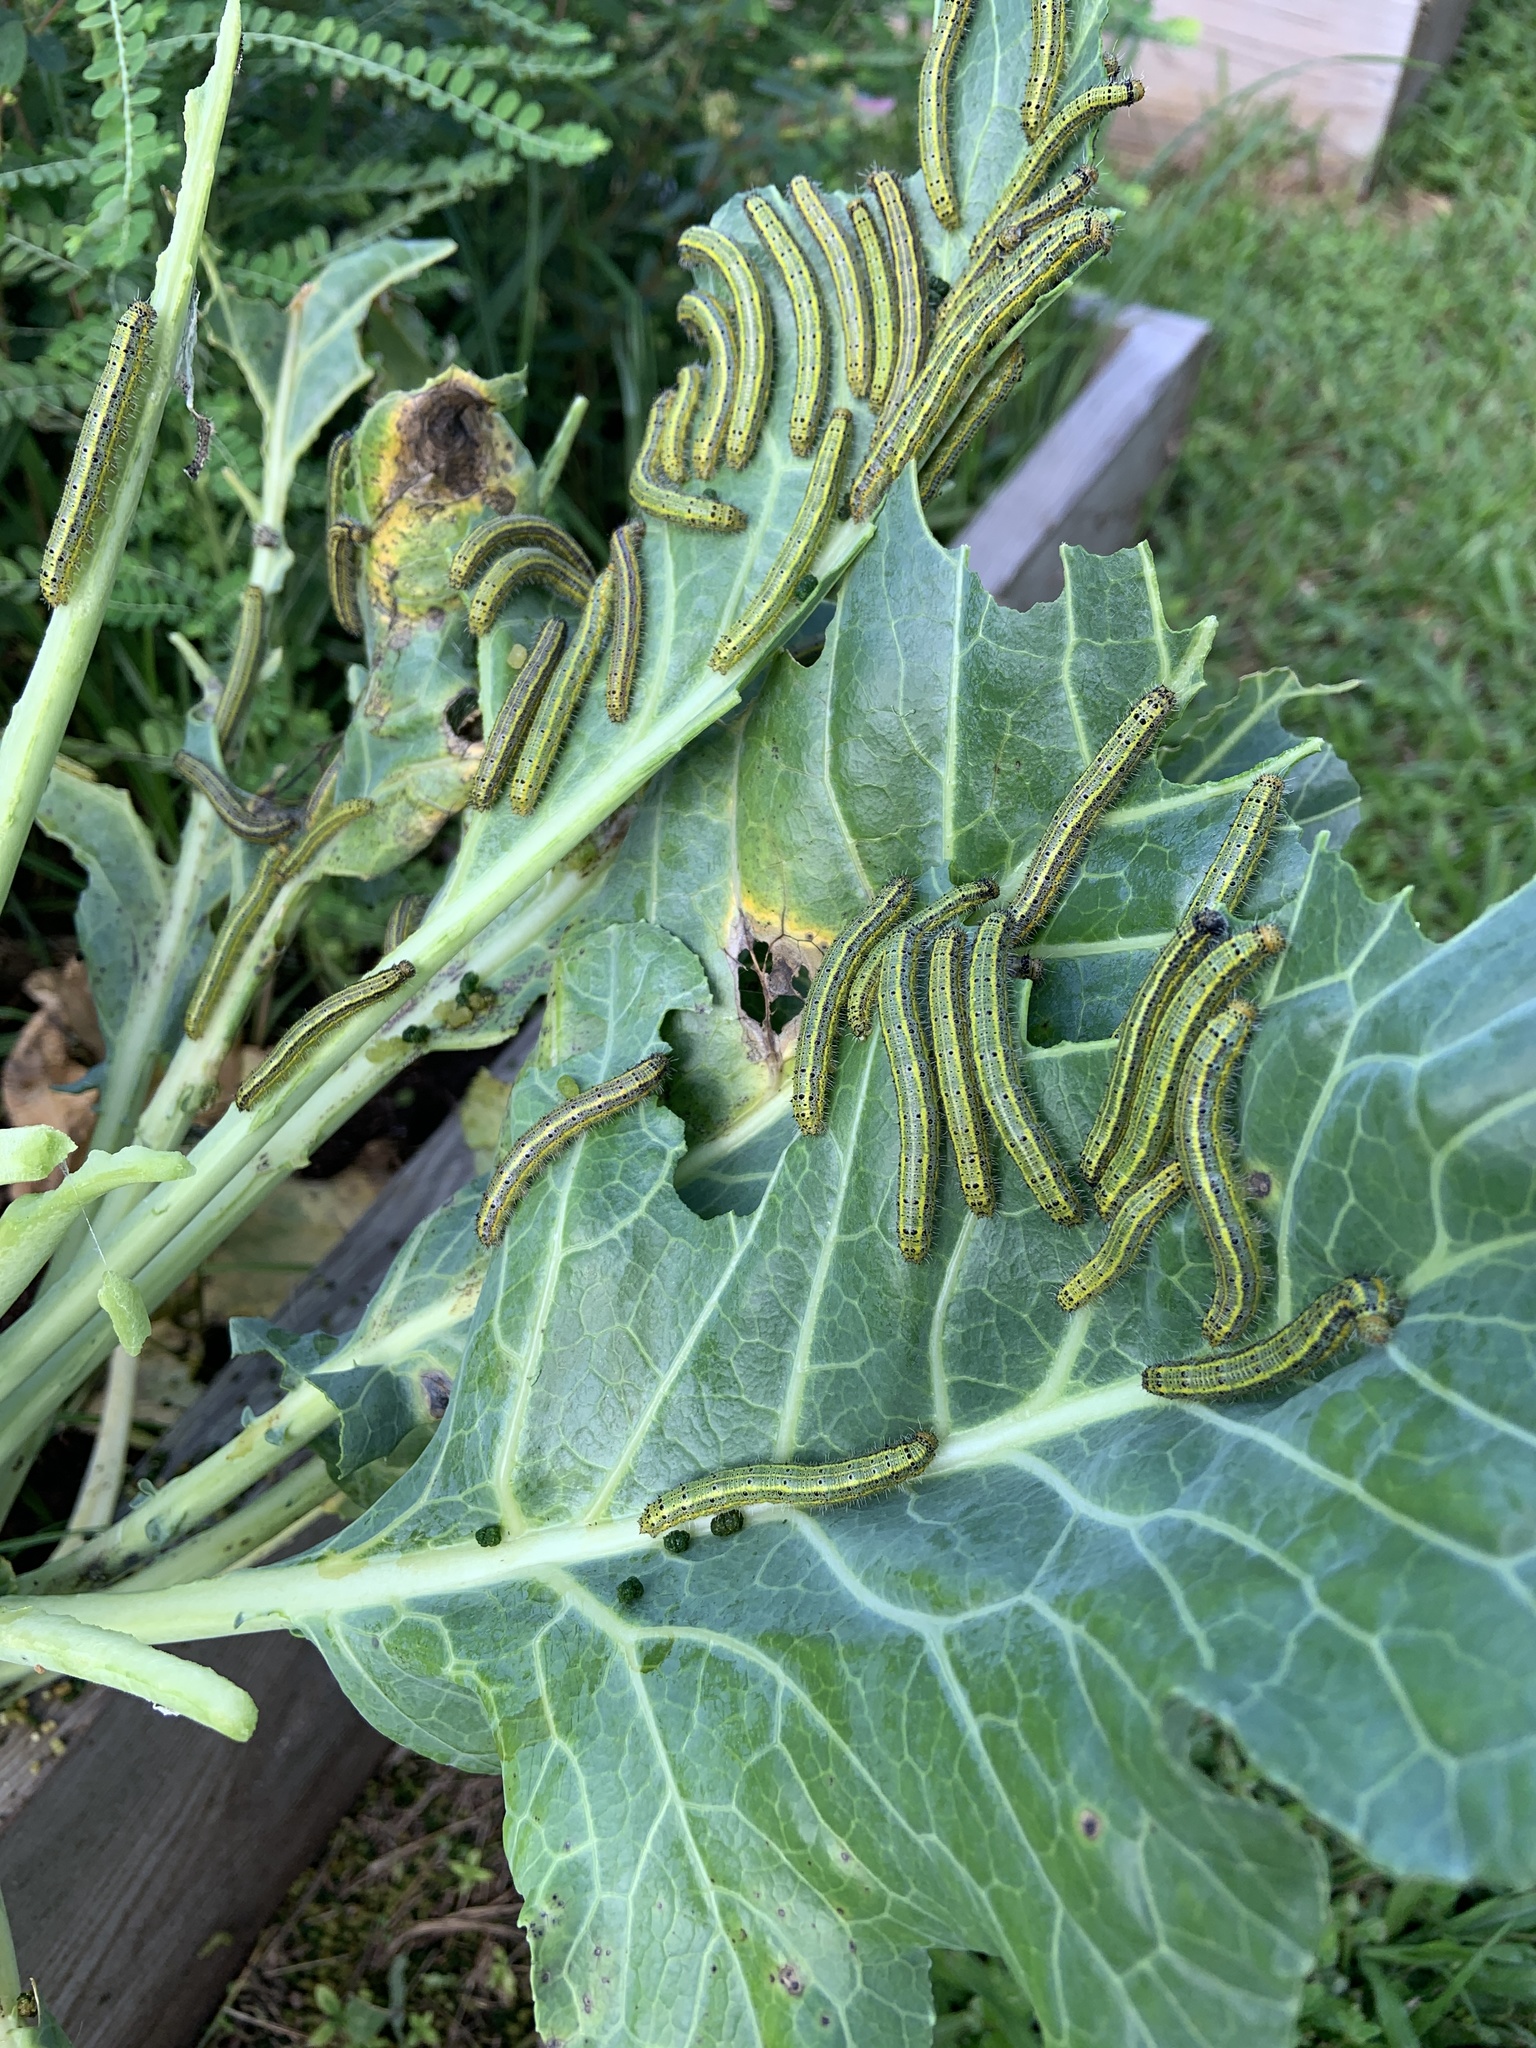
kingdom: Animalia
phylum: Arthropoda
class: Insecta
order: Lepidoptera
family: Pieridae
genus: Ascia
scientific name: Ascia monuste
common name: Great southern white
